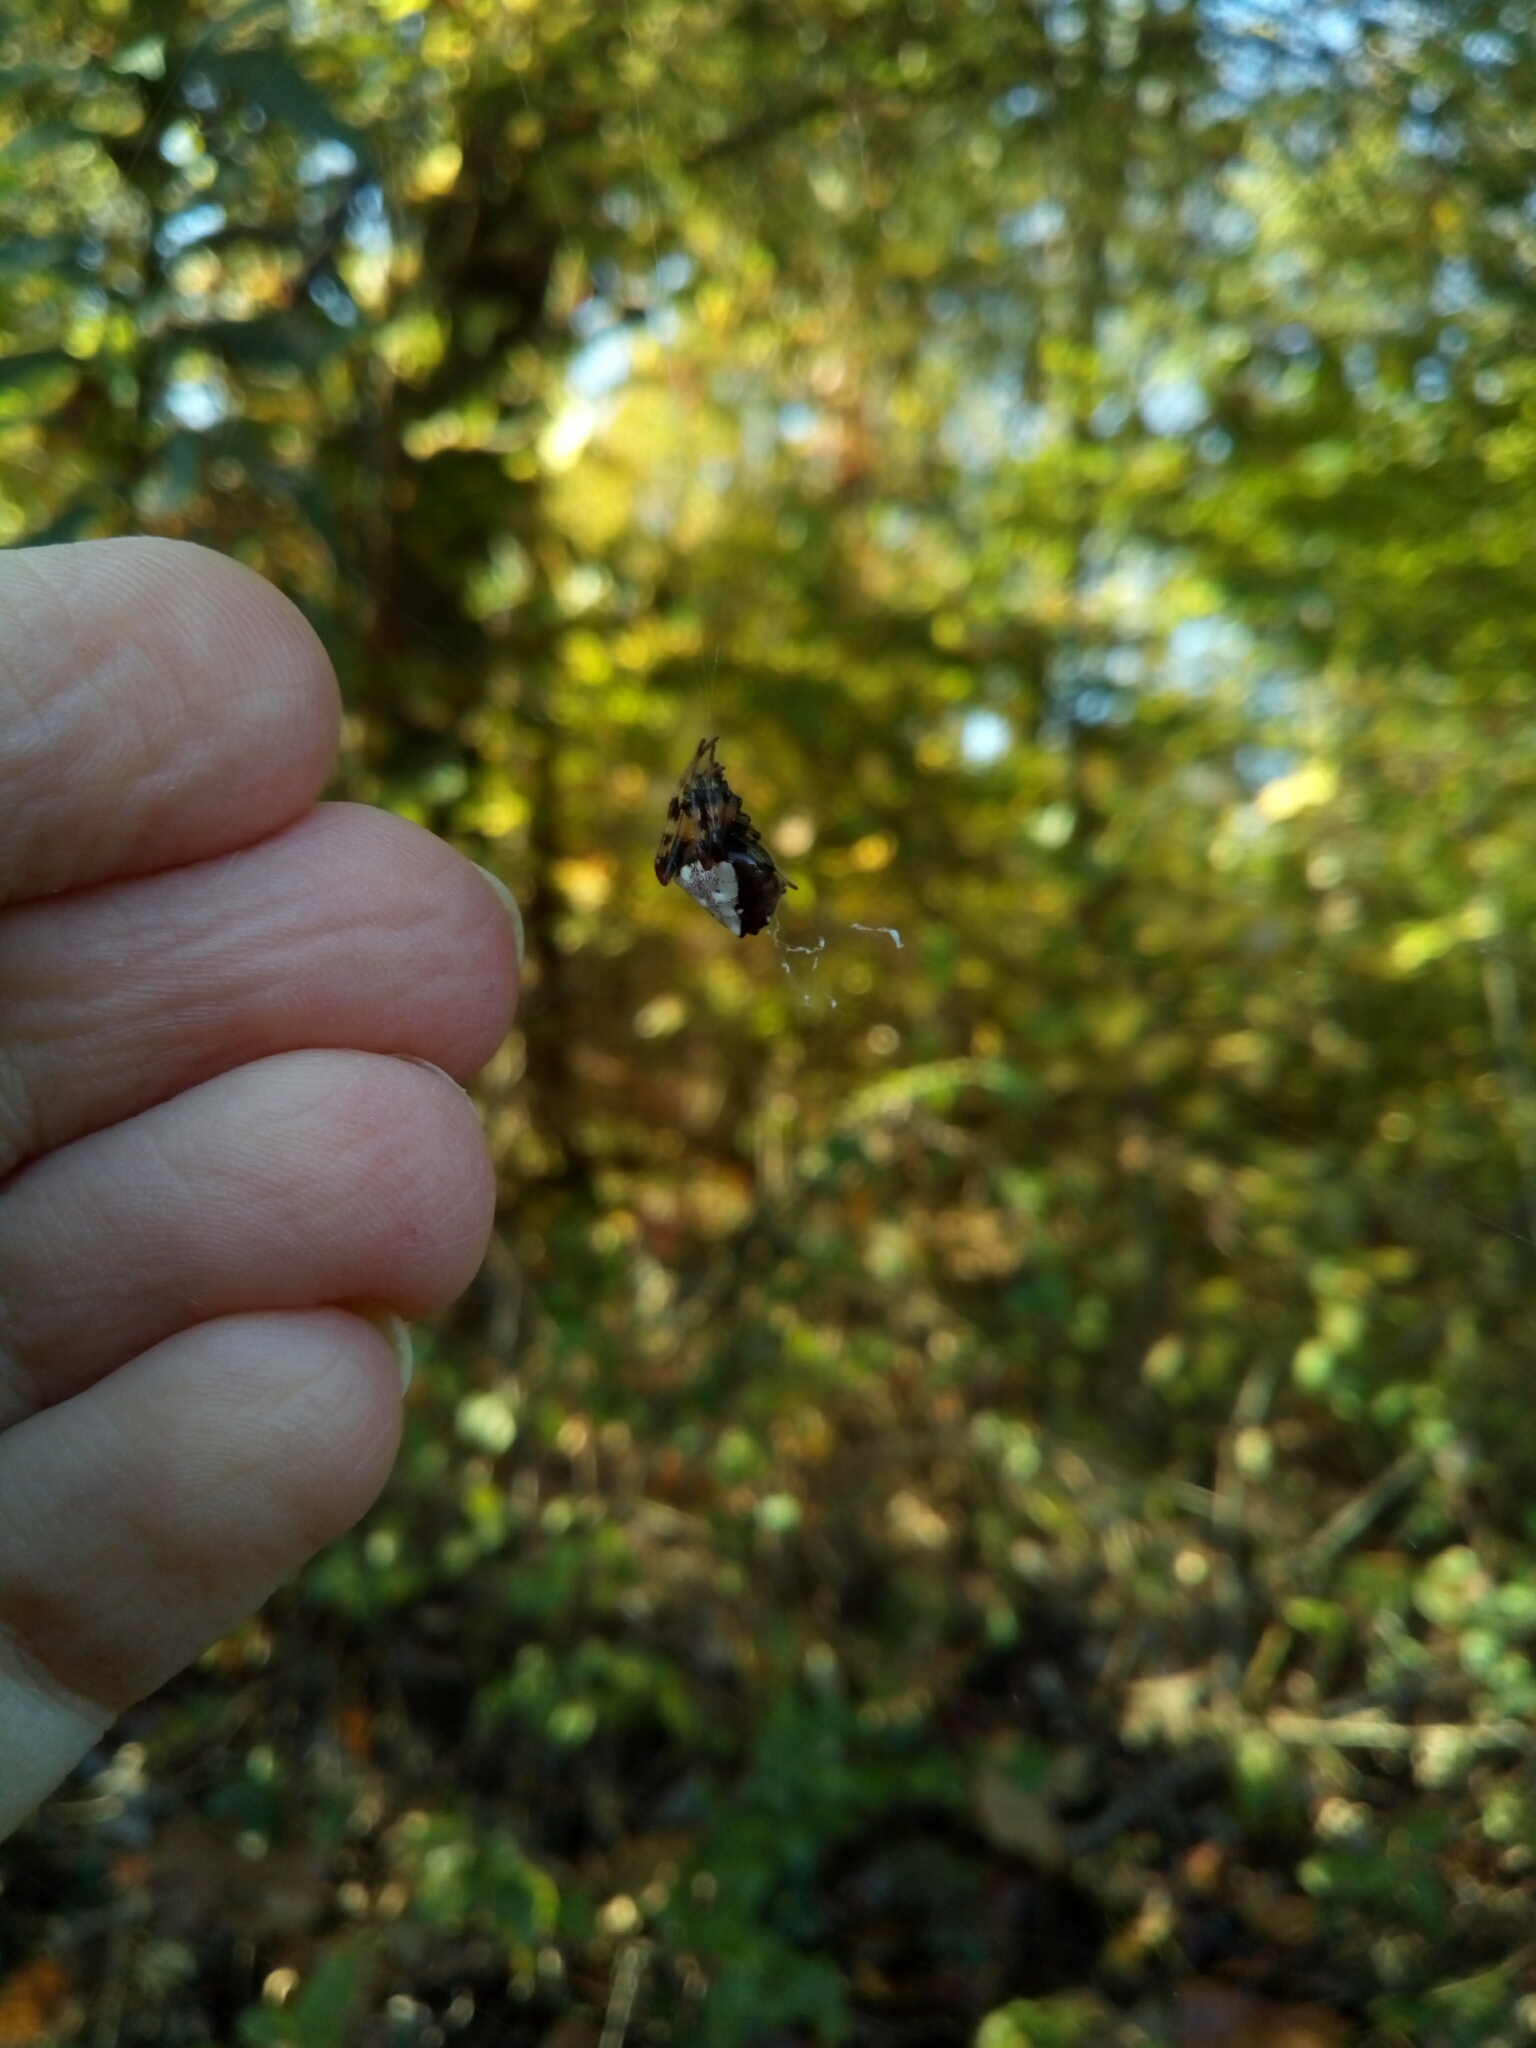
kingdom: Animalia
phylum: Arthropoda
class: Arachnida
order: Araneae
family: Araneidae
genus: Verrucosa
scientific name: Verrucosa arenata
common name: Orb weavers
